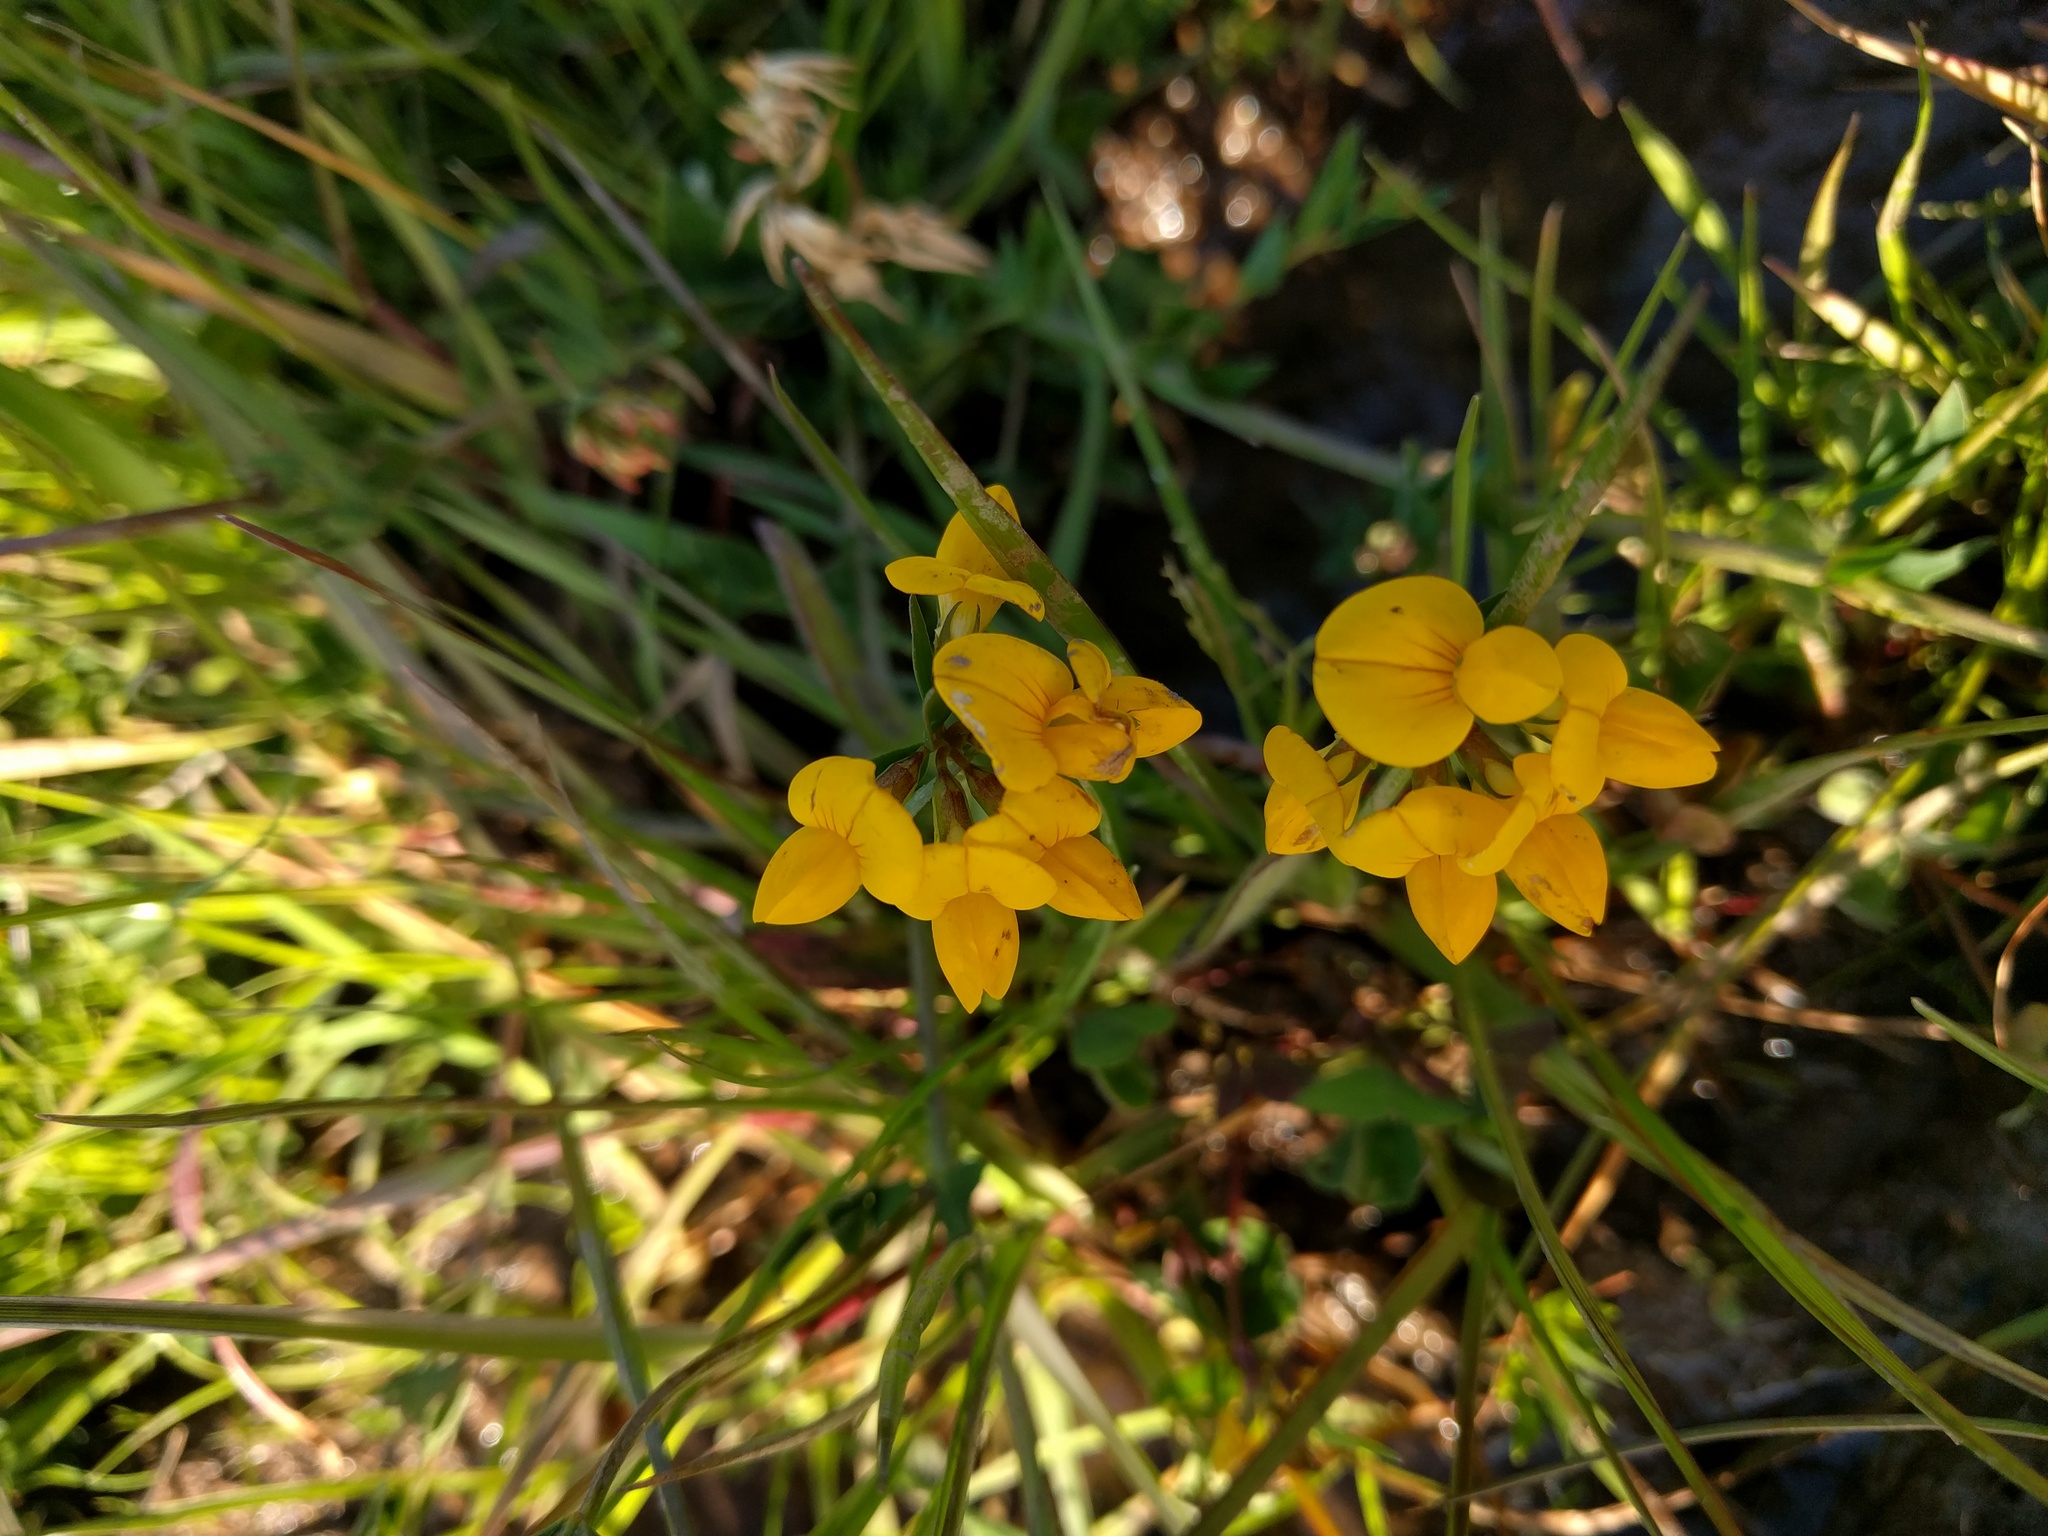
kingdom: Plantae
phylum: Tracheophyta
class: Magnoliopsida
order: Fabales
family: Fabaceae
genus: Lotus
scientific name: Lotus corniculatus
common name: Common bird's-foot-trefoil
